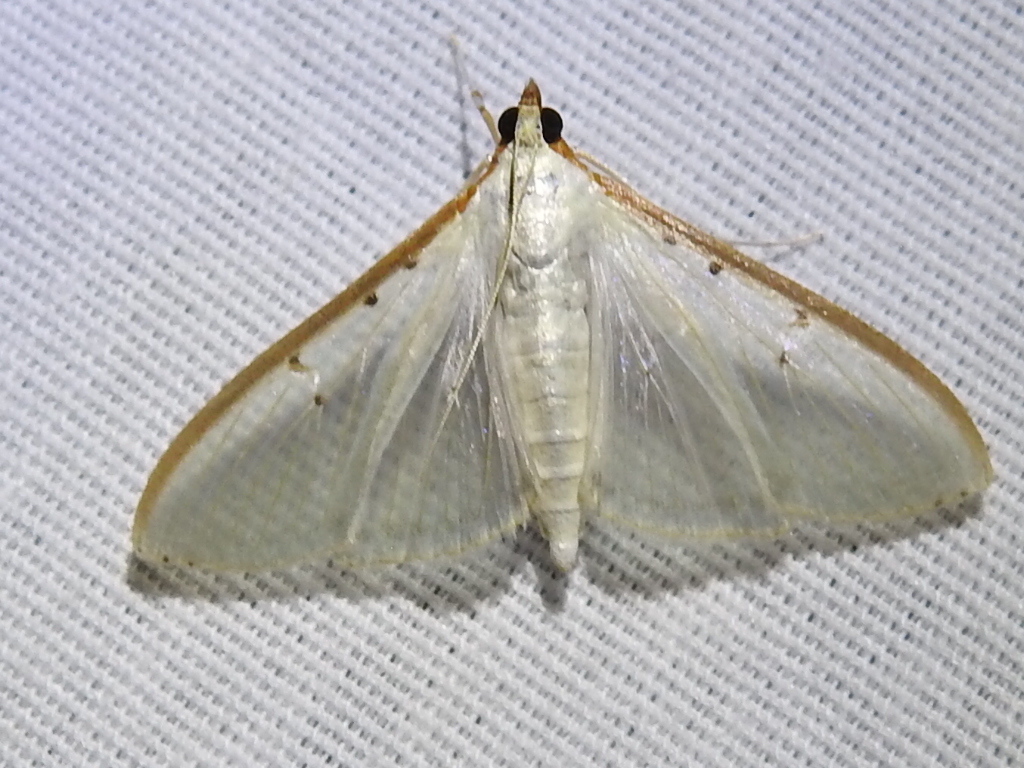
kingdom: Animalia
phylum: Arthropoda
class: Insecta
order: Lepidoptera
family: Crambidae
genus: Palpita
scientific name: Palpita quadristigmalis
